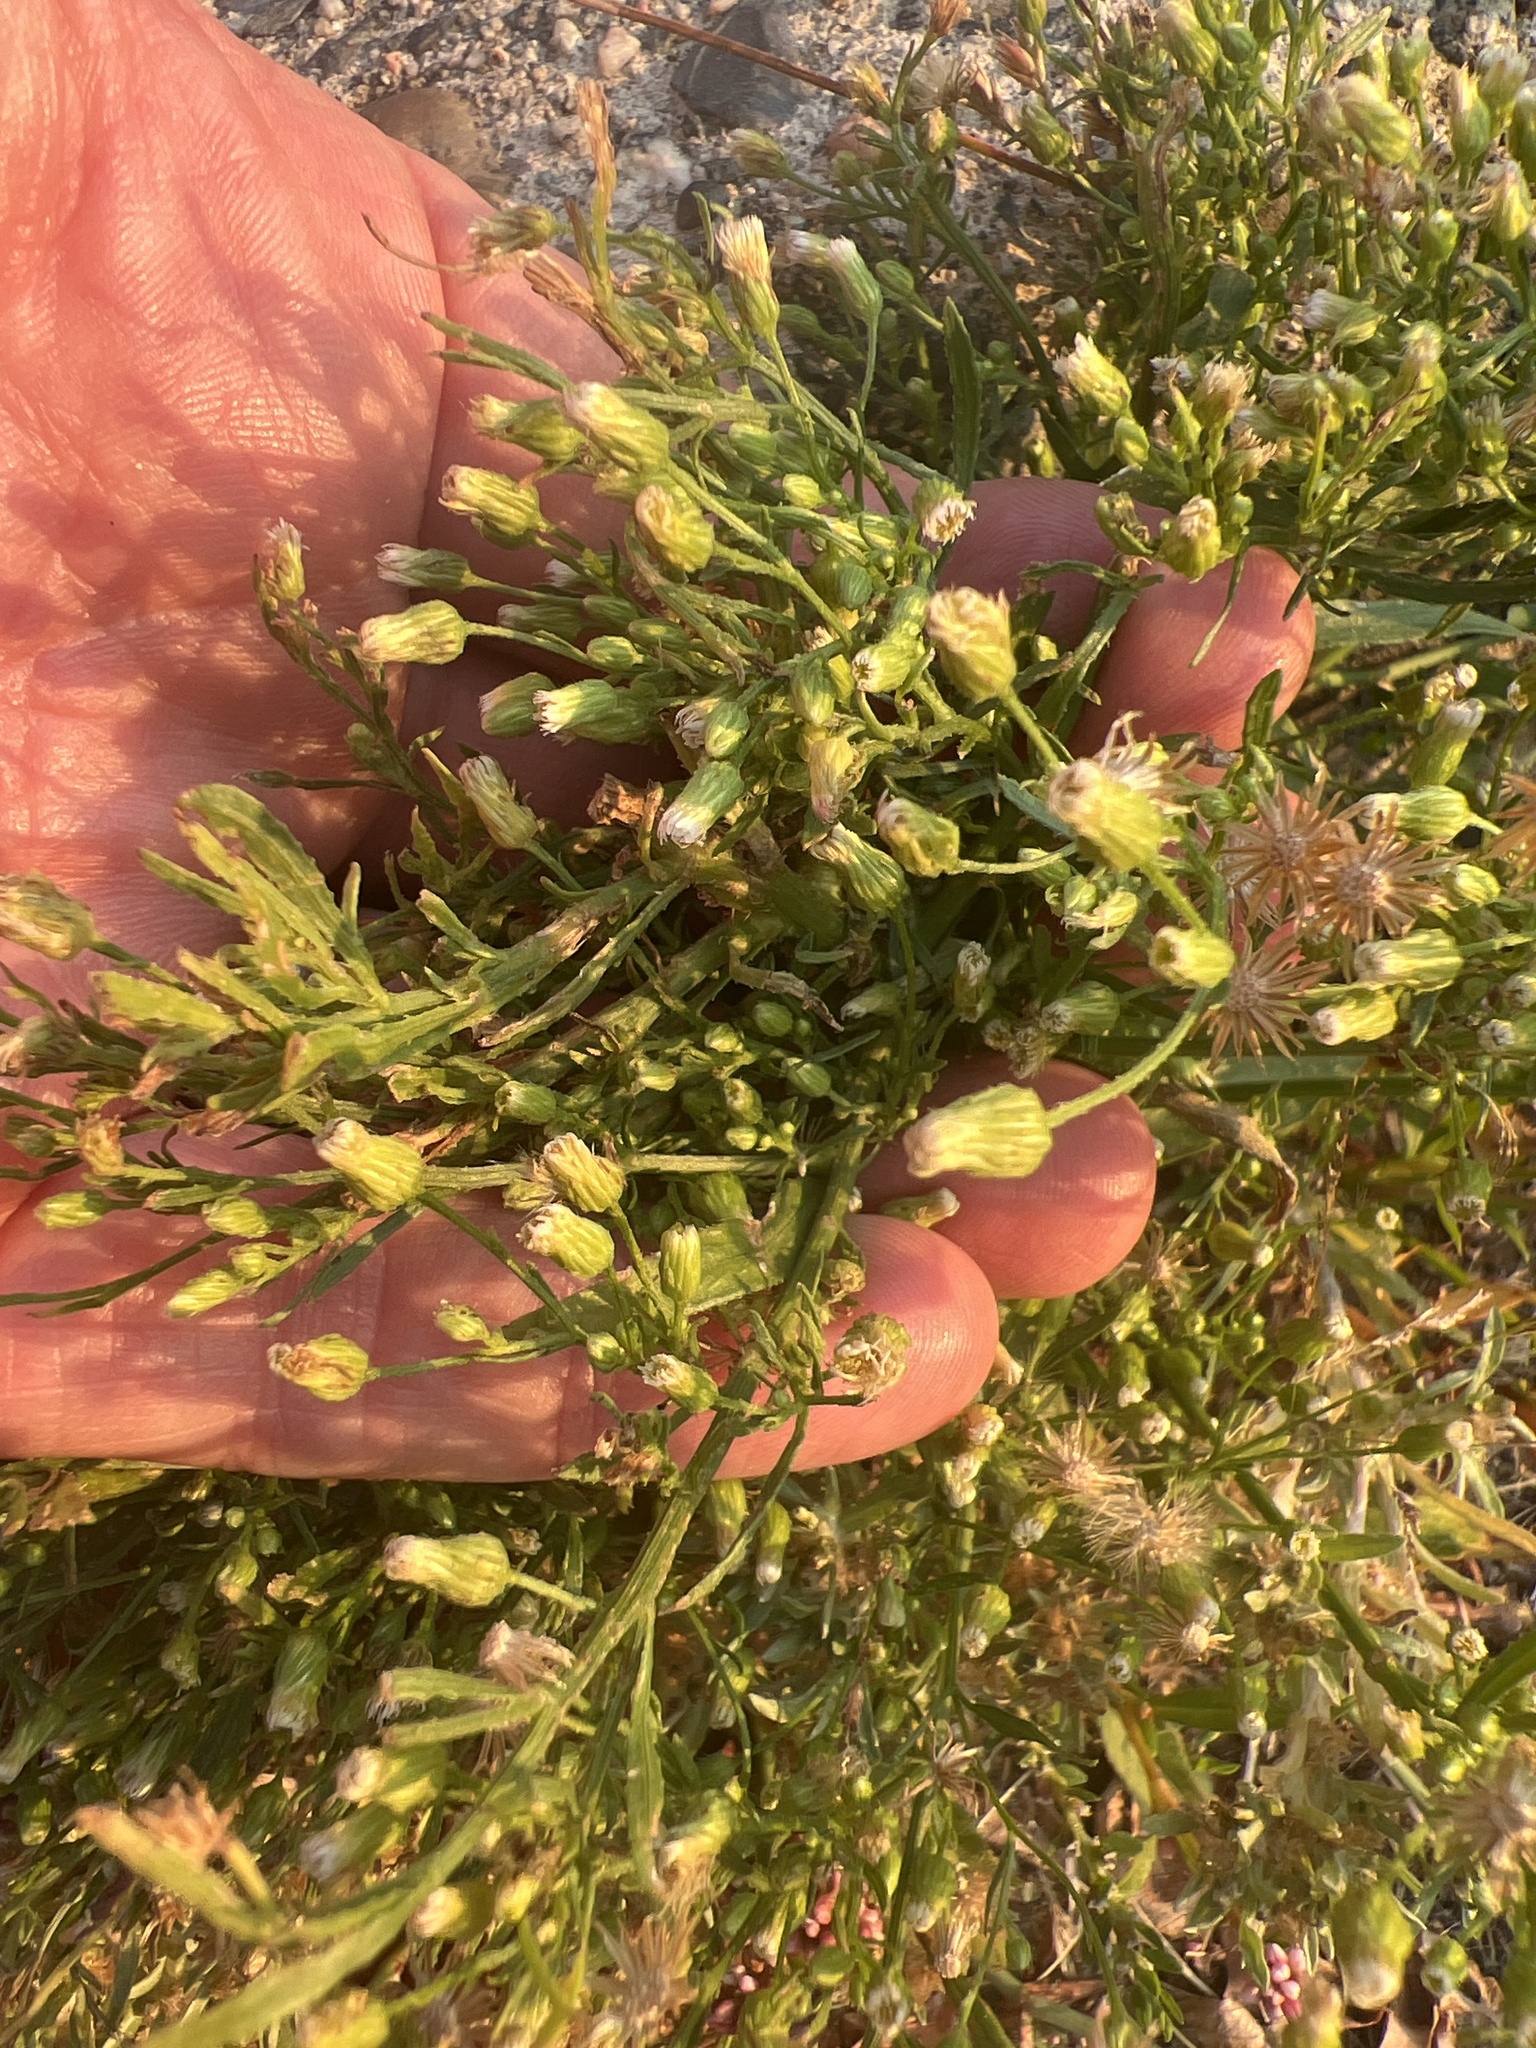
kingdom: Plantae
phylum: Tracheophyta
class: Magnoliopsida
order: Asterales
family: Asteraceae
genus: Erigeron
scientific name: Erigeron canadensis
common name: Canadian fleabane
